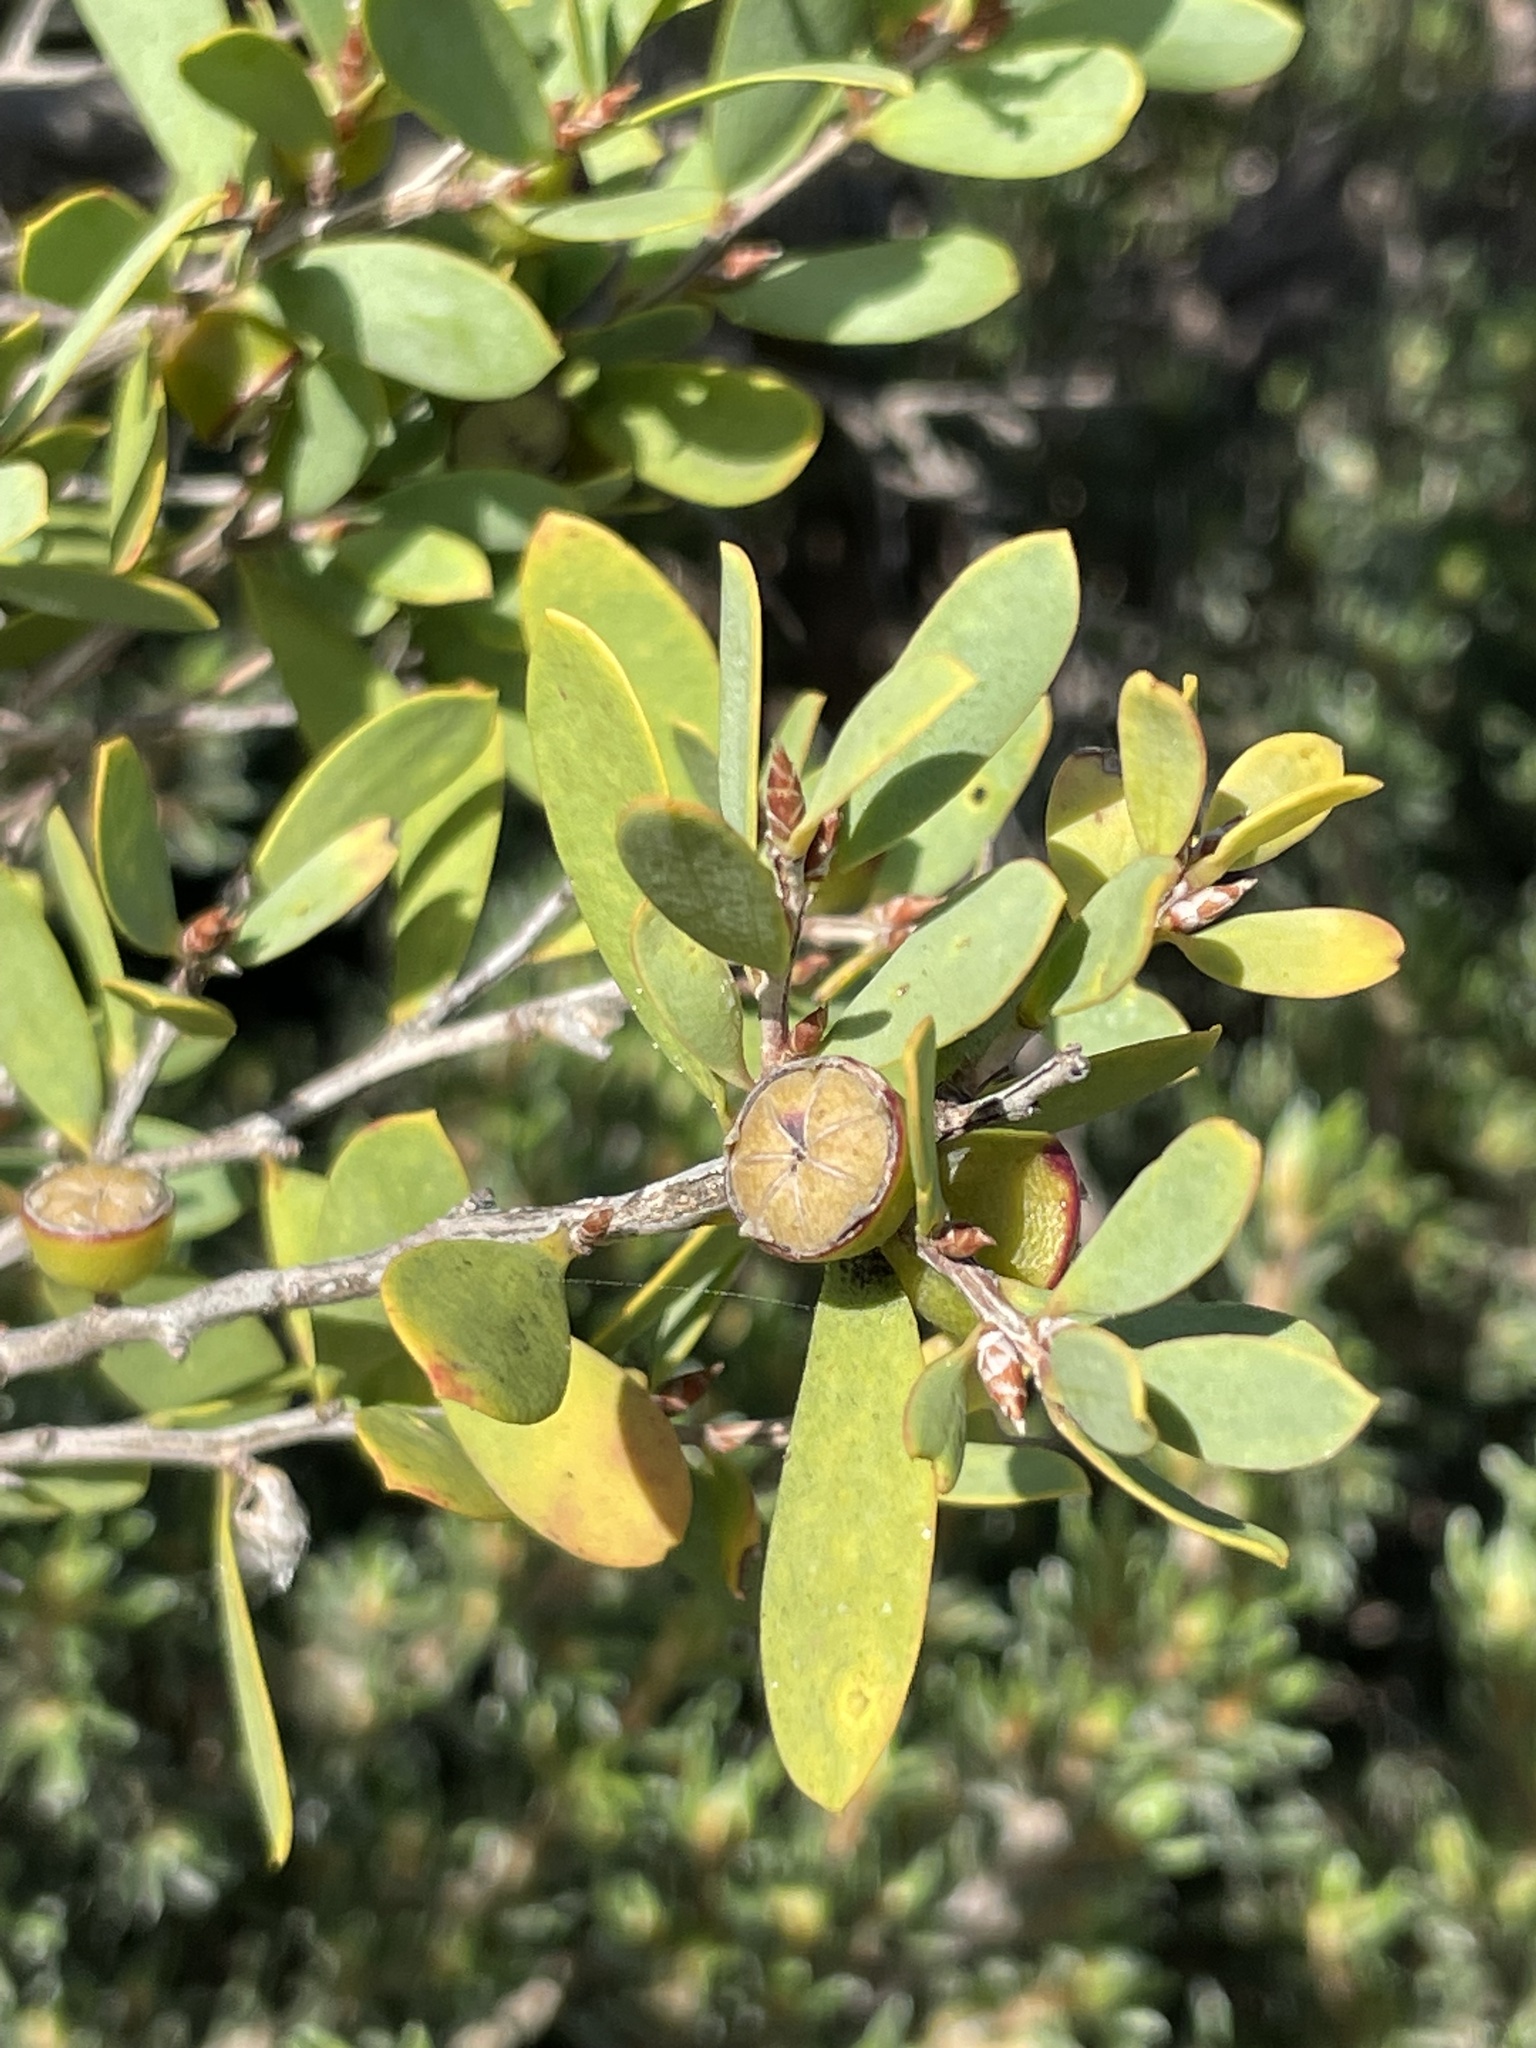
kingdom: Plantae
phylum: Tracheophyta
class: Magnoliopsida
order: Myrtales
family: Myrtaceae
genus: Leptospermum
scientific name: Leptospermum laevigatum
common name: Australian teatree
